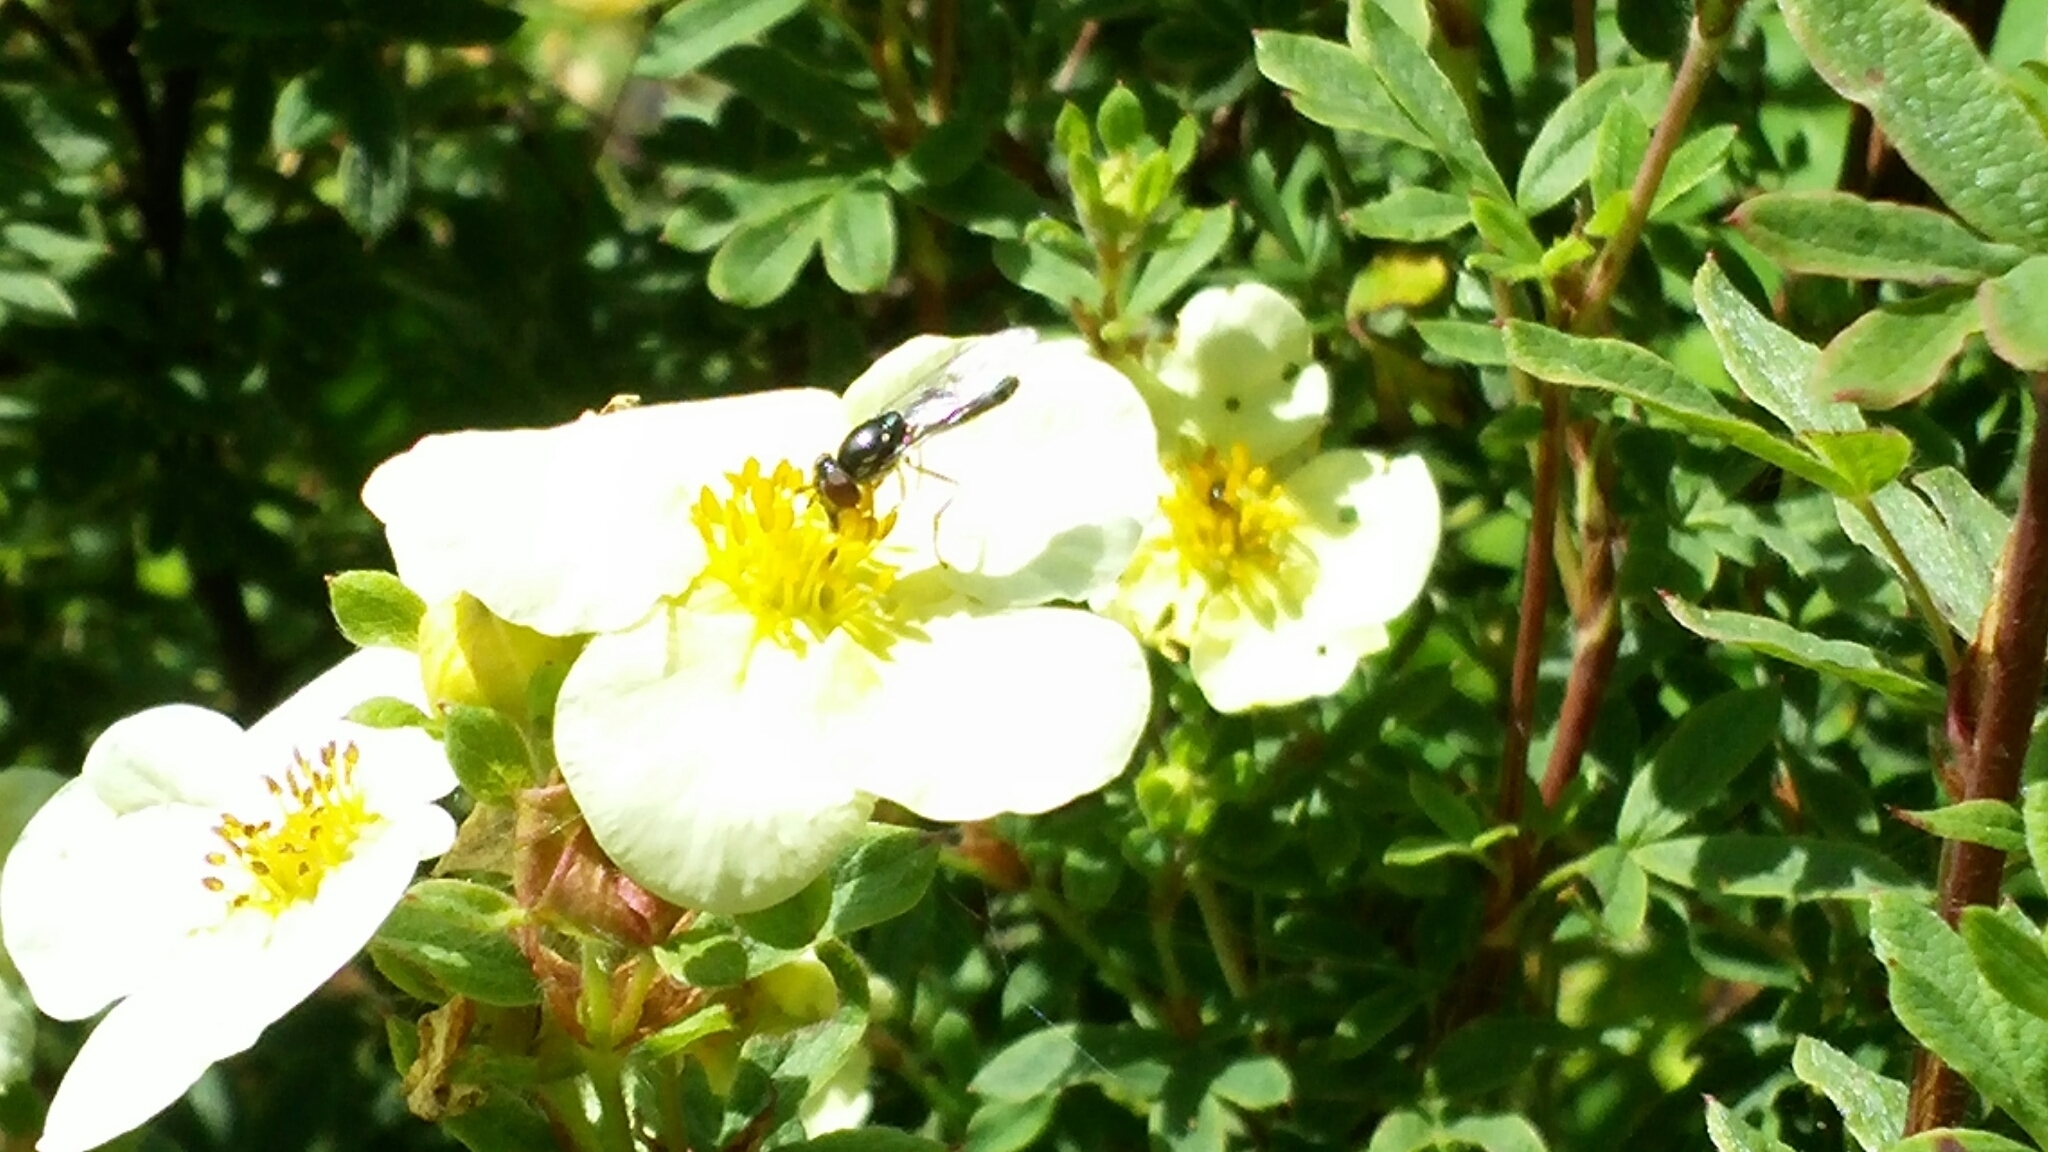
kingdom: Animalia
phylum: Arthropoda
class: Insecta
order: Diptera
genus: Bacchina
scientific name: Bacchina
